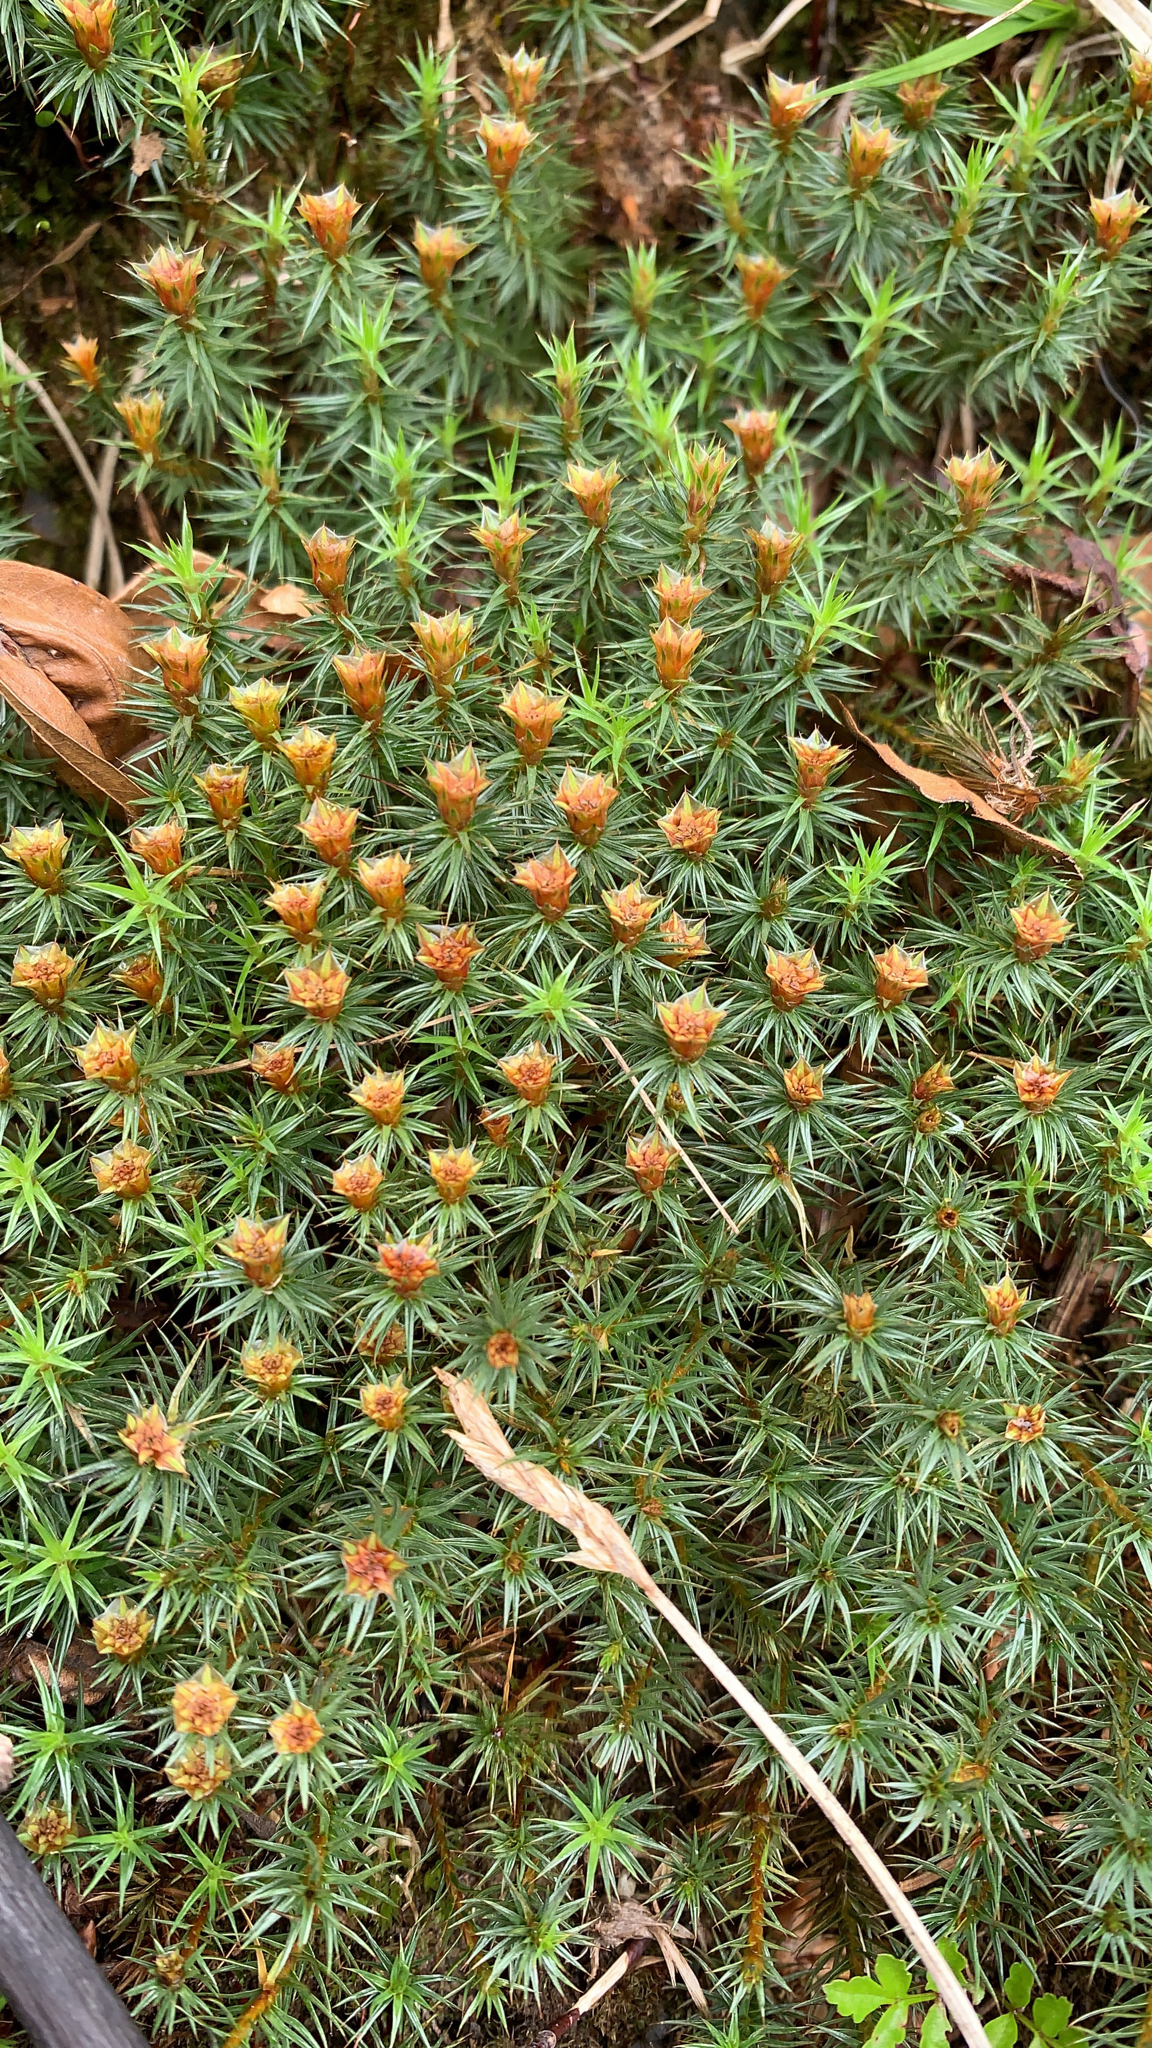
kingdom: Plantae
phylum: Bryophyta
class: Polytrichopsida
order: Polytrichales
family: Polytrichaceae
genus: Polytrichum
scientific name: Polytrichum juniperinum
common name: Juniper haircap moss
